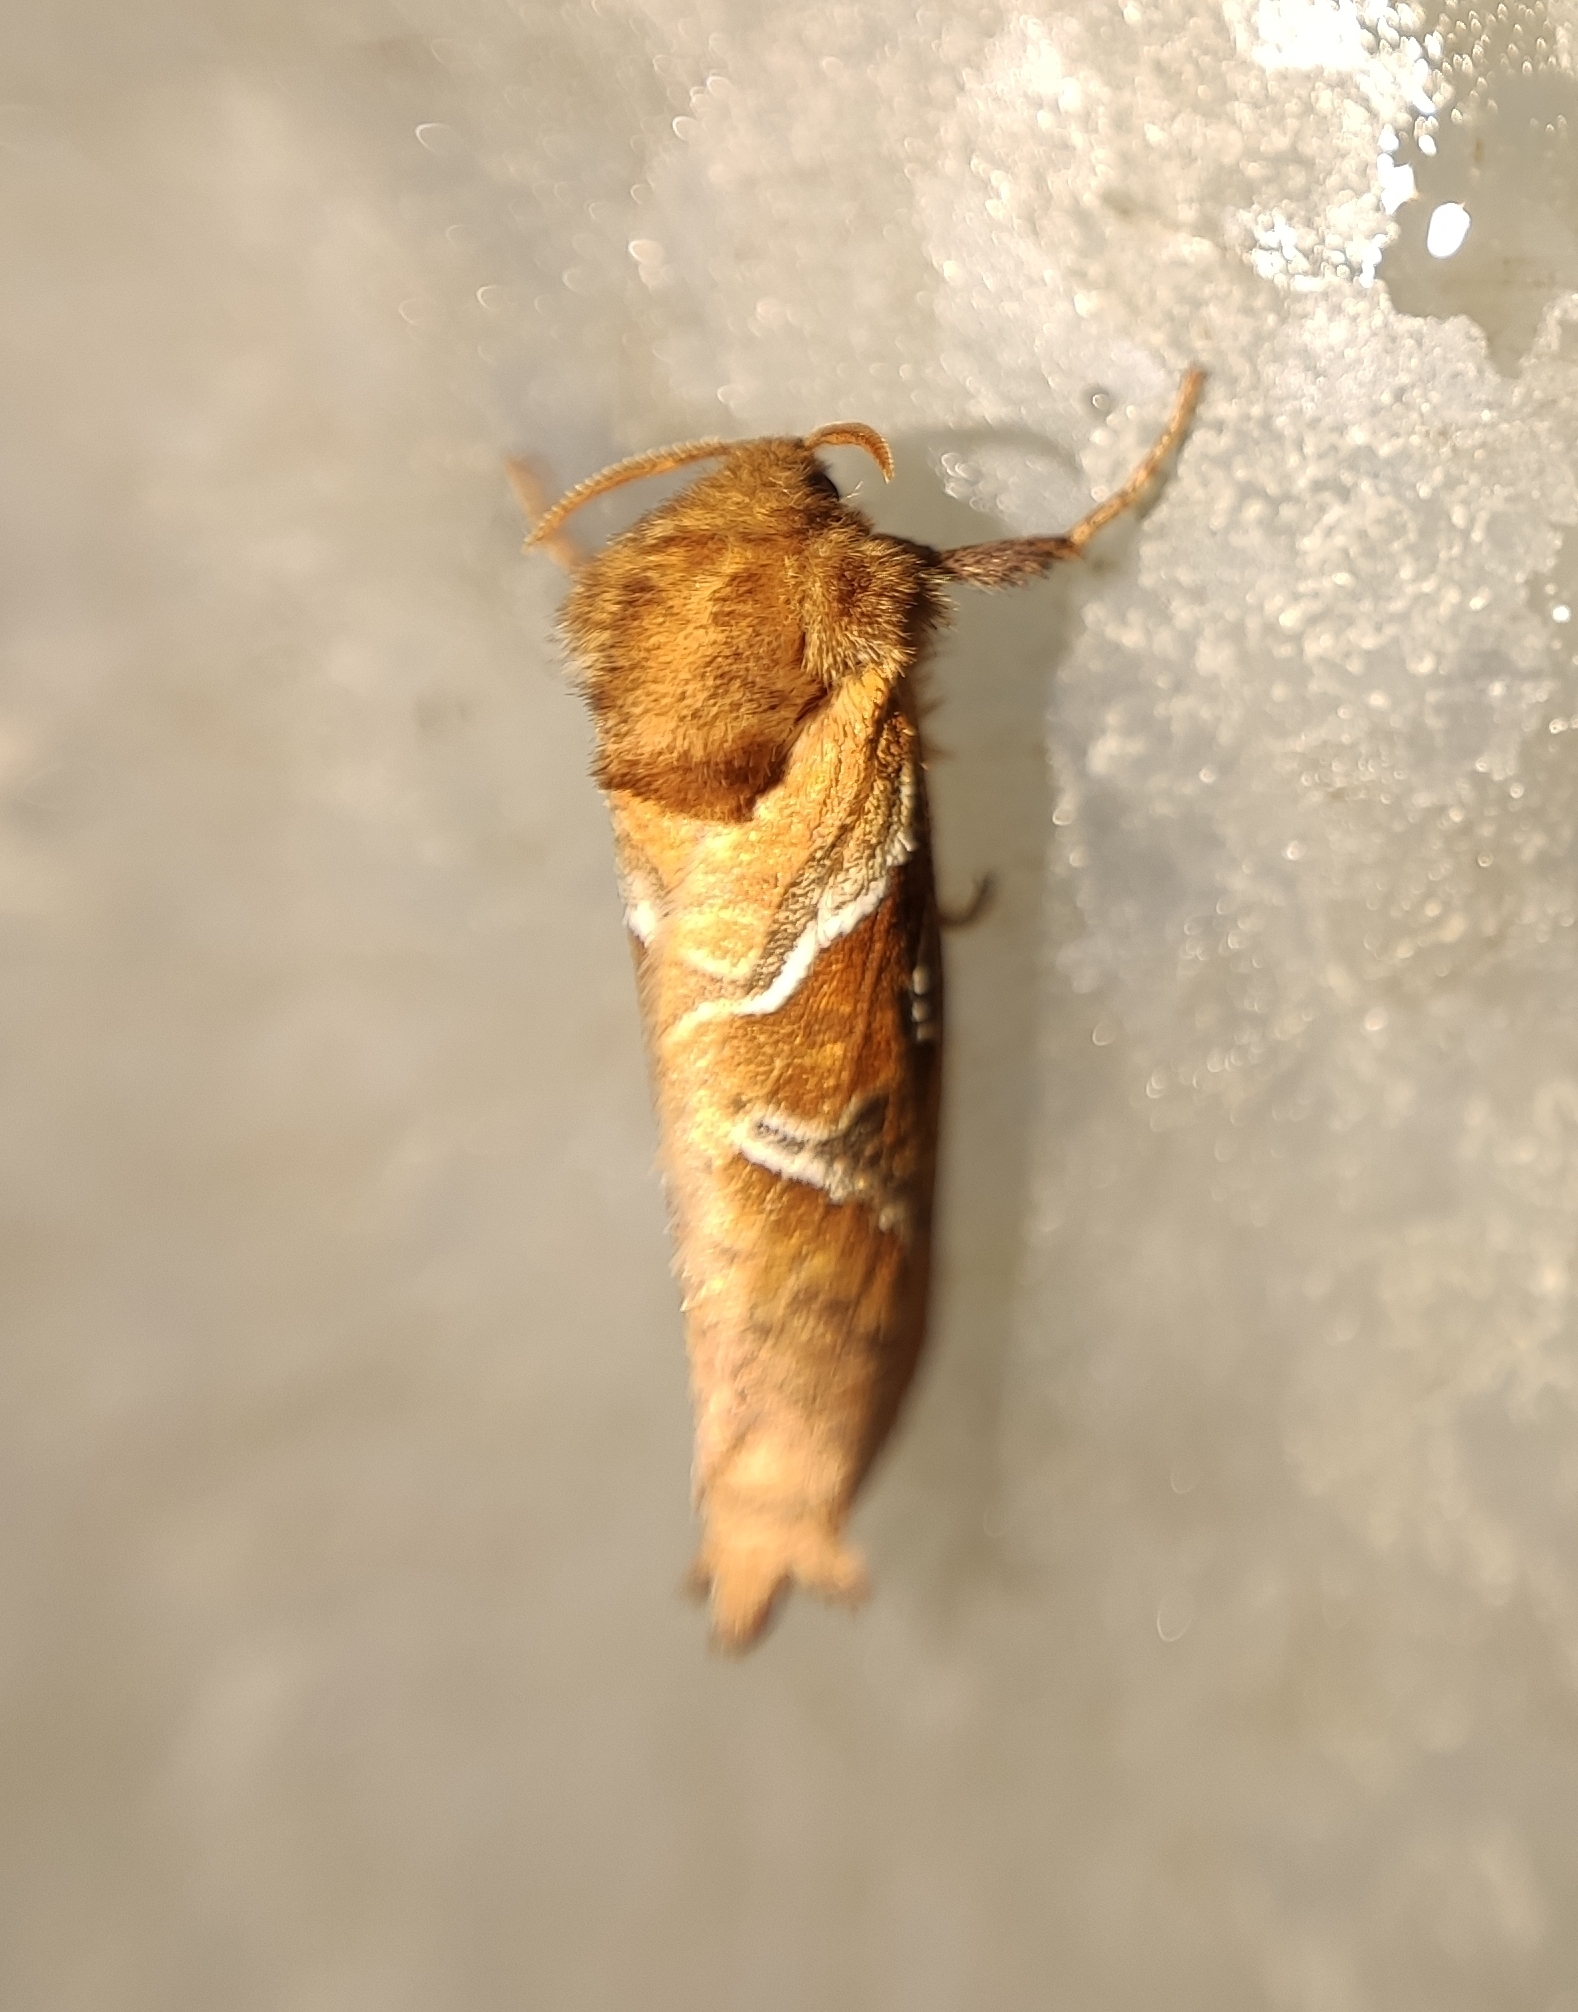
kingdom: Animalia
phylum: Arthropoda
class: Insecta
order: Lepidoptera
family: Hepialidae
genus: Triodia
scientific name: Triodia sylvina
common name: Orange swift
